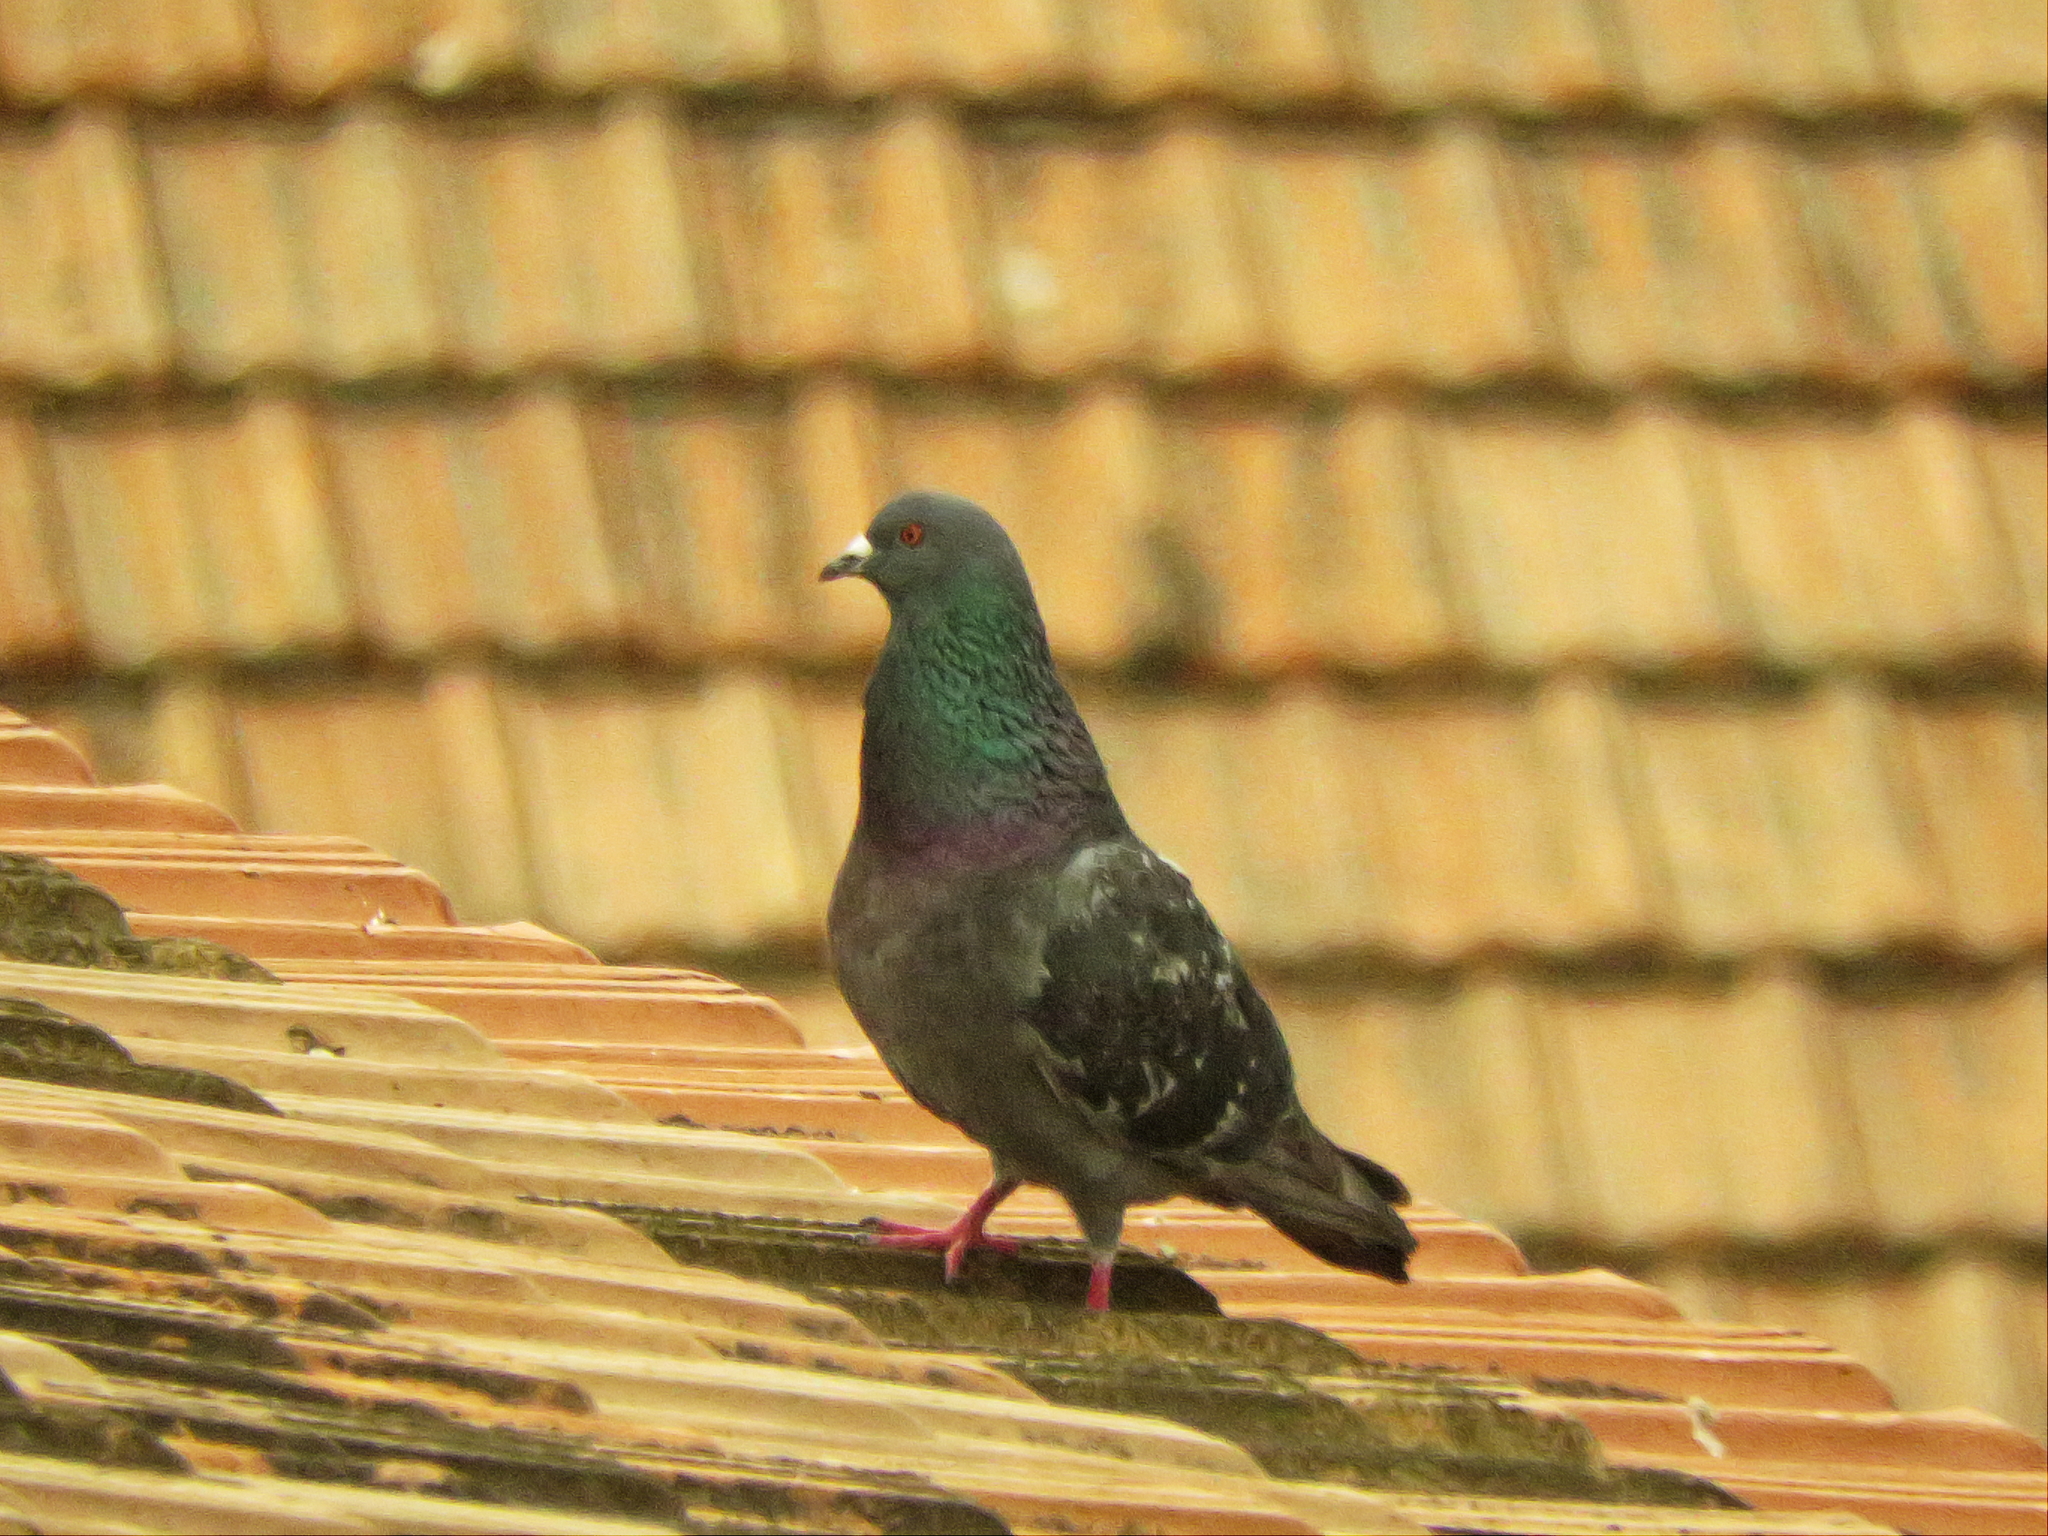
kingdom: Animalia
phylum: Chordata
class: Aves
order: Columbiformes
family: Columbidae
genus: Columba
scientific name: Columba livia
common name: Rock pigeon
